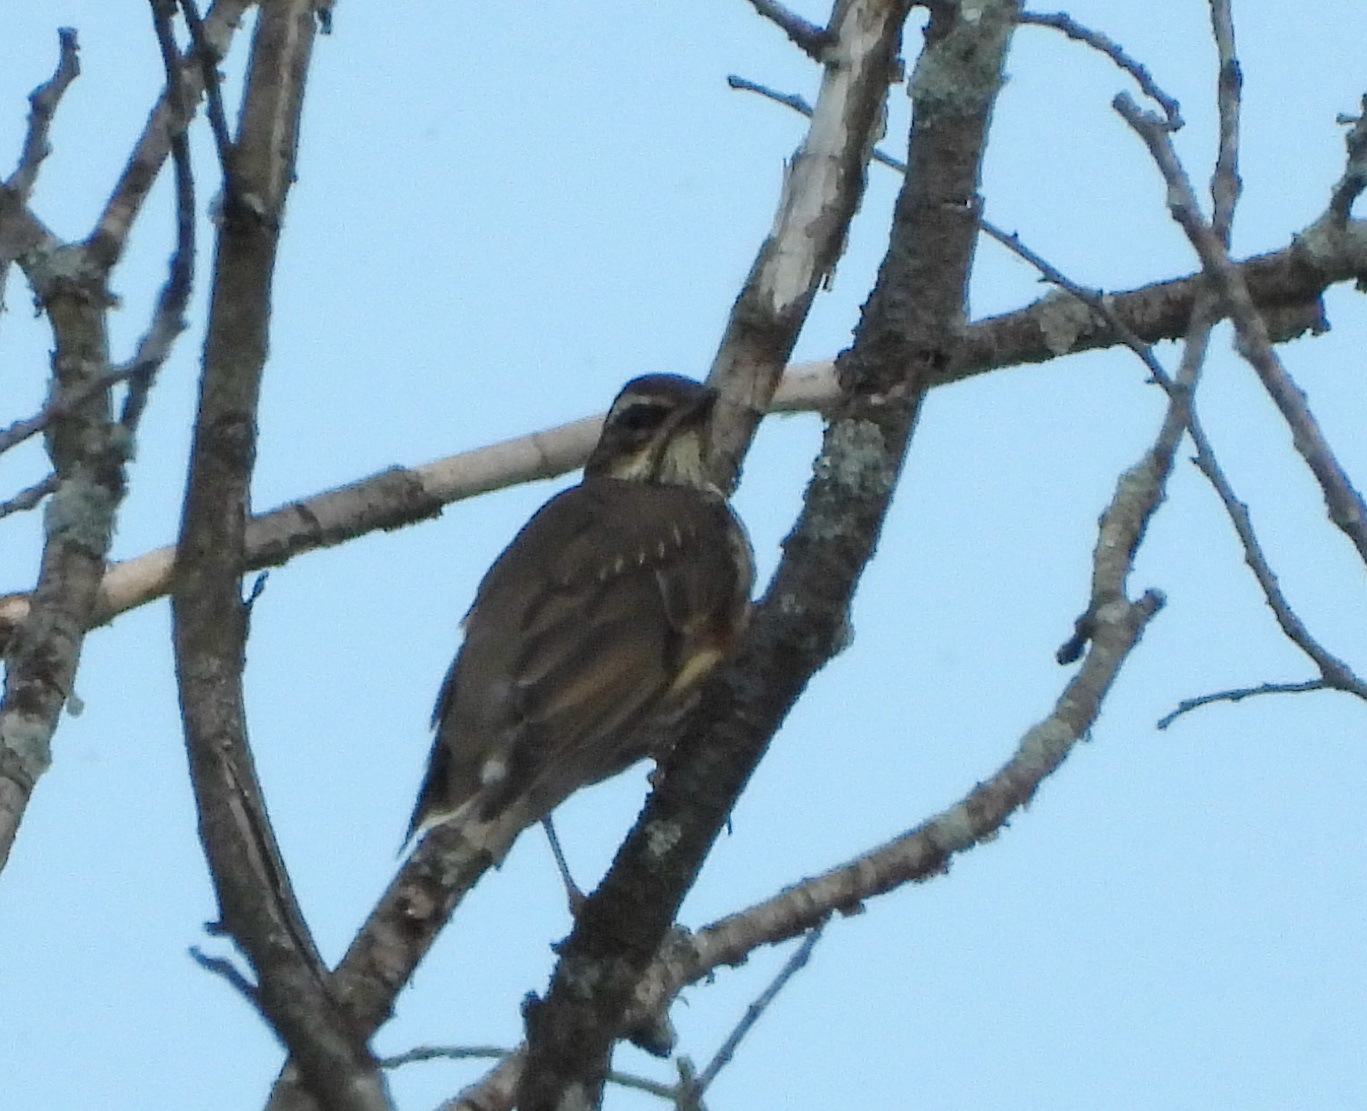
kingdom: Animalia
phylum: Chordata
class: Aves
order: Passeriformes
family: Turdidae
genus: Turdus
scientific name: Turdus iliacus
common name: Redwing
